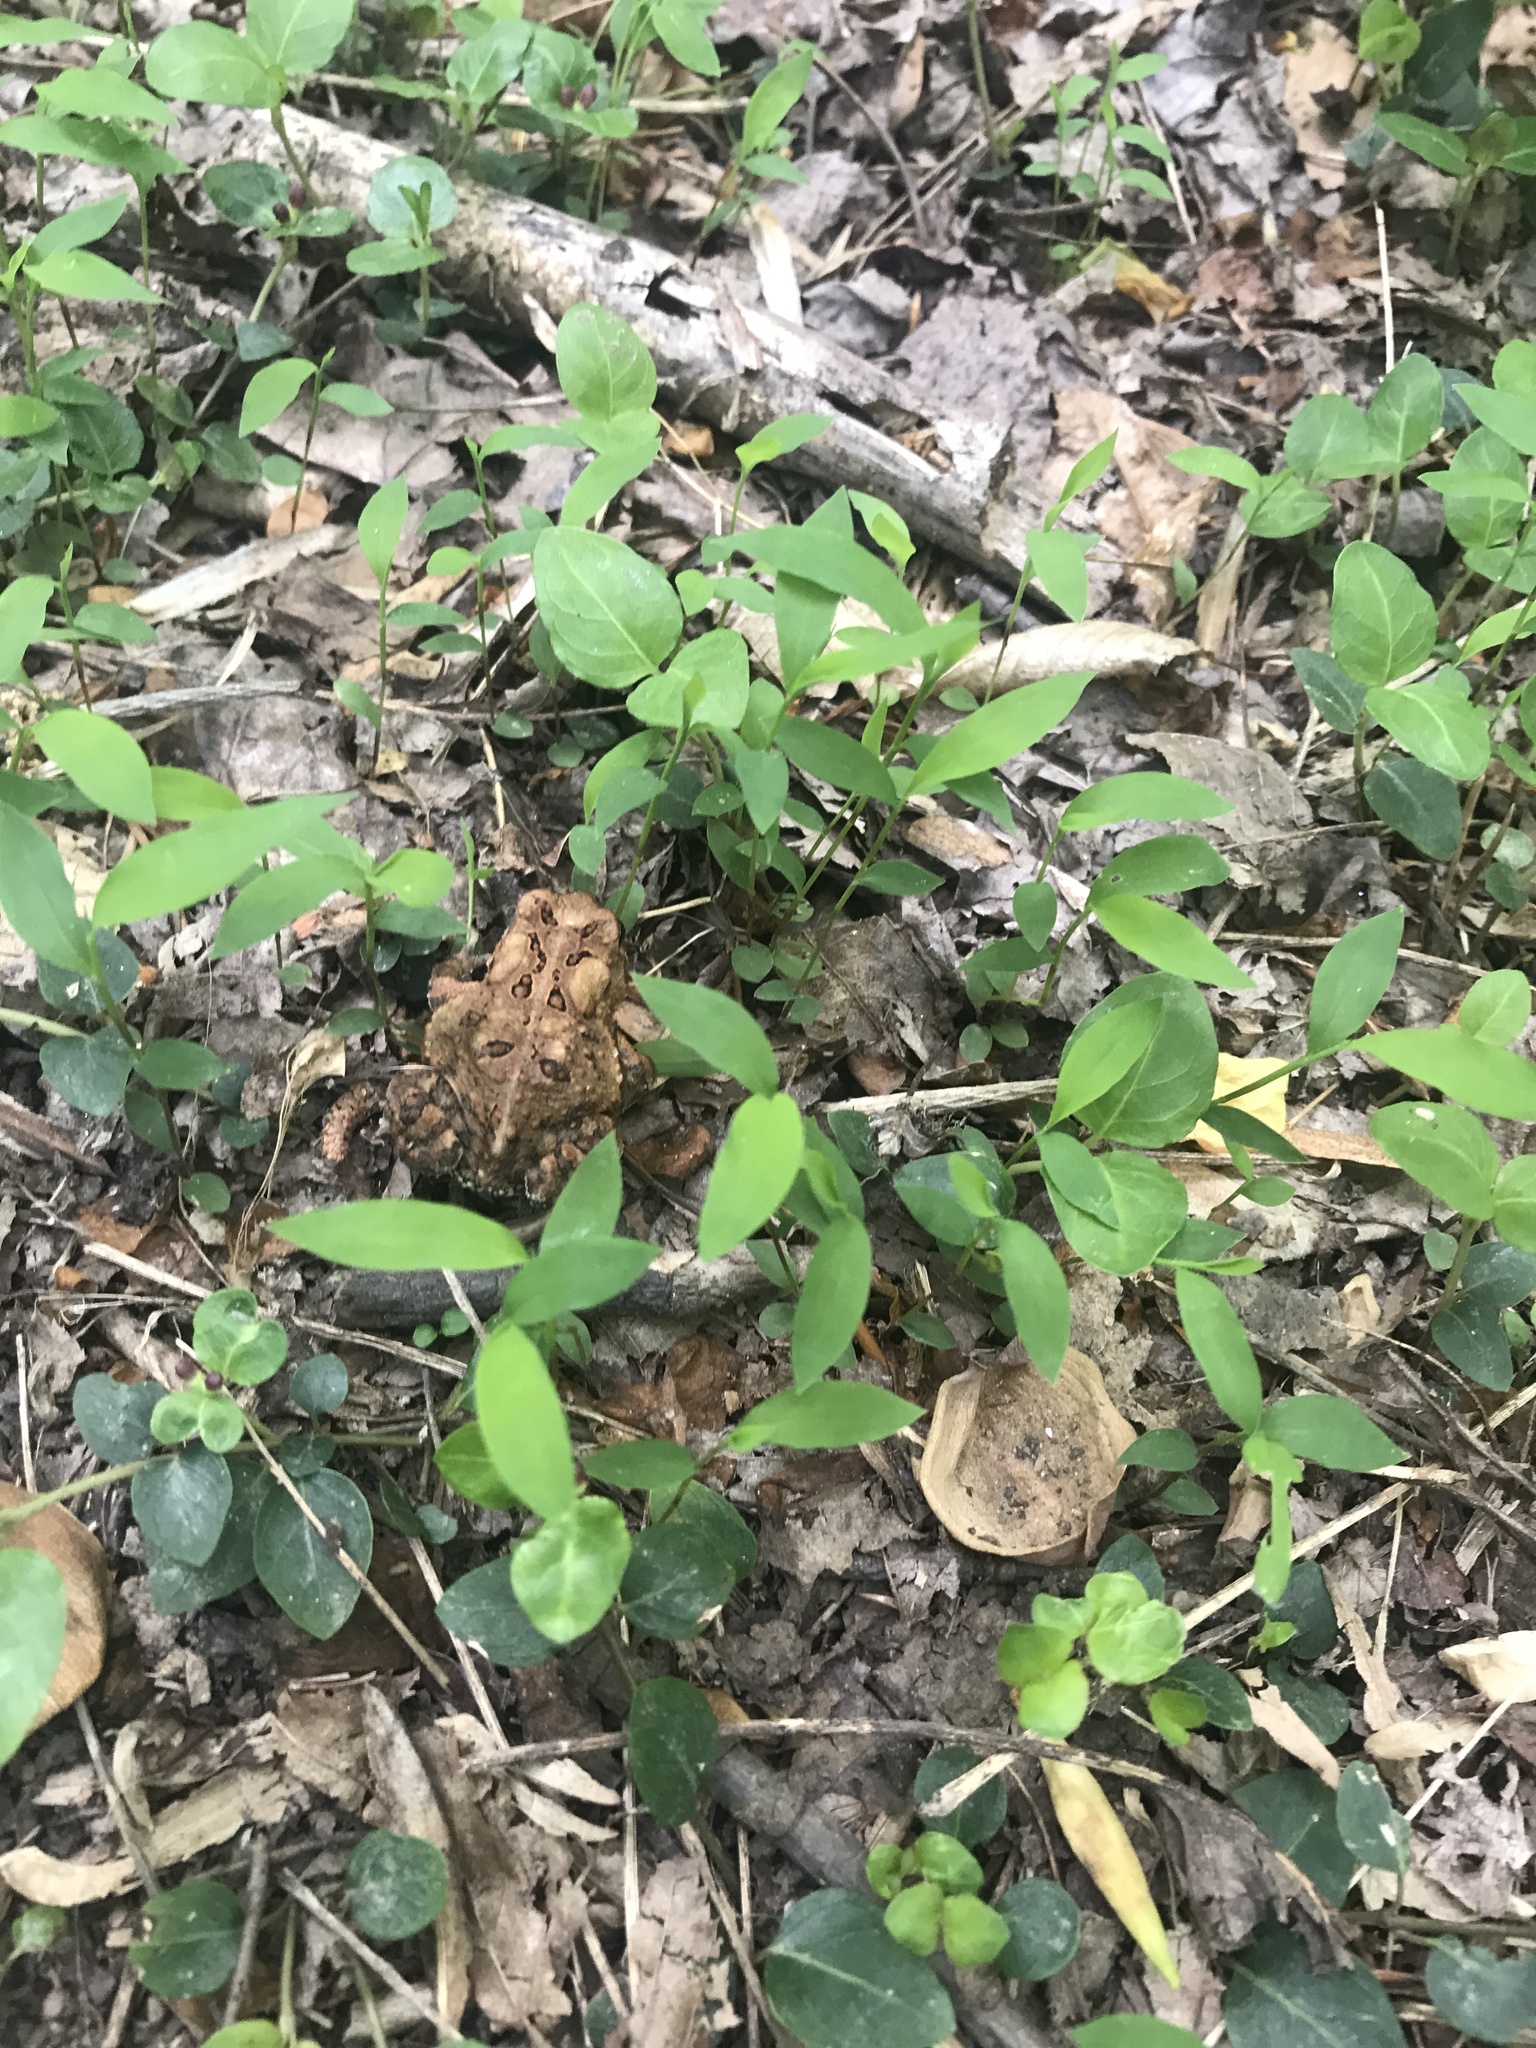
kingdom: Animalia
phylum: Chordata
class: Amphibia
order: Anura
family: Bufonidae
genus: Anaxyrus
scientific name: Anaxyrus americanus
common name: American toad
